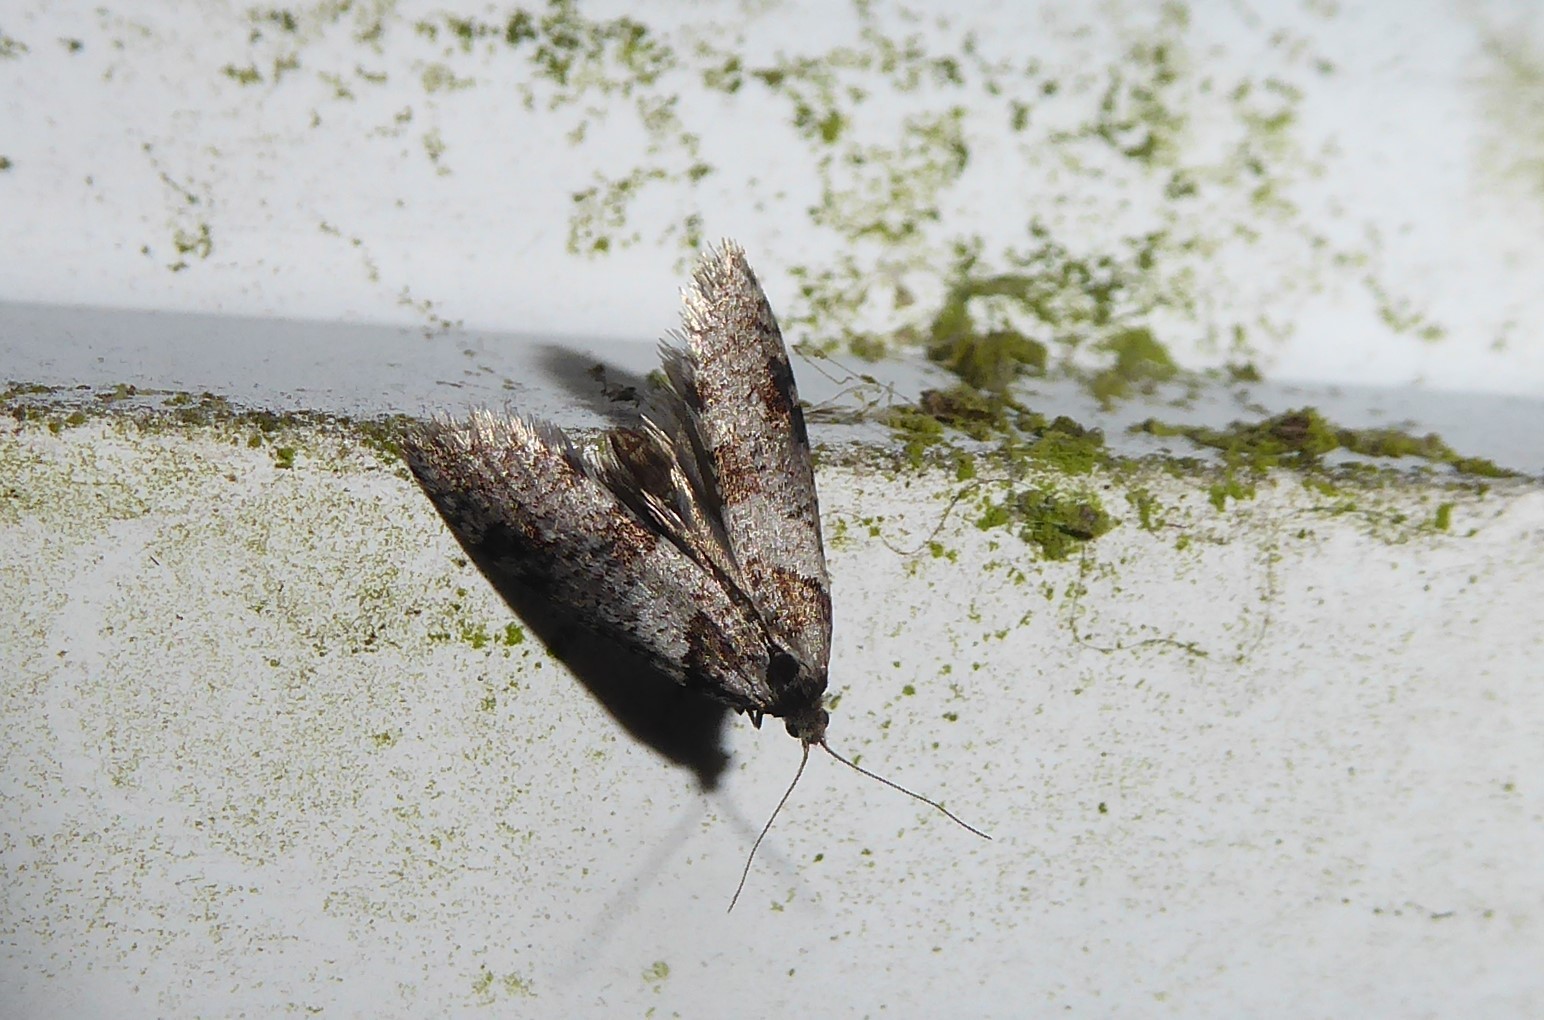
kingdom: Animalia
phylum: Arthropoda
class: Insecta
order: Lepidoptera
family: Psychidae
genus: Lepidoscia
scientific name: Lepidoscia heliochares
